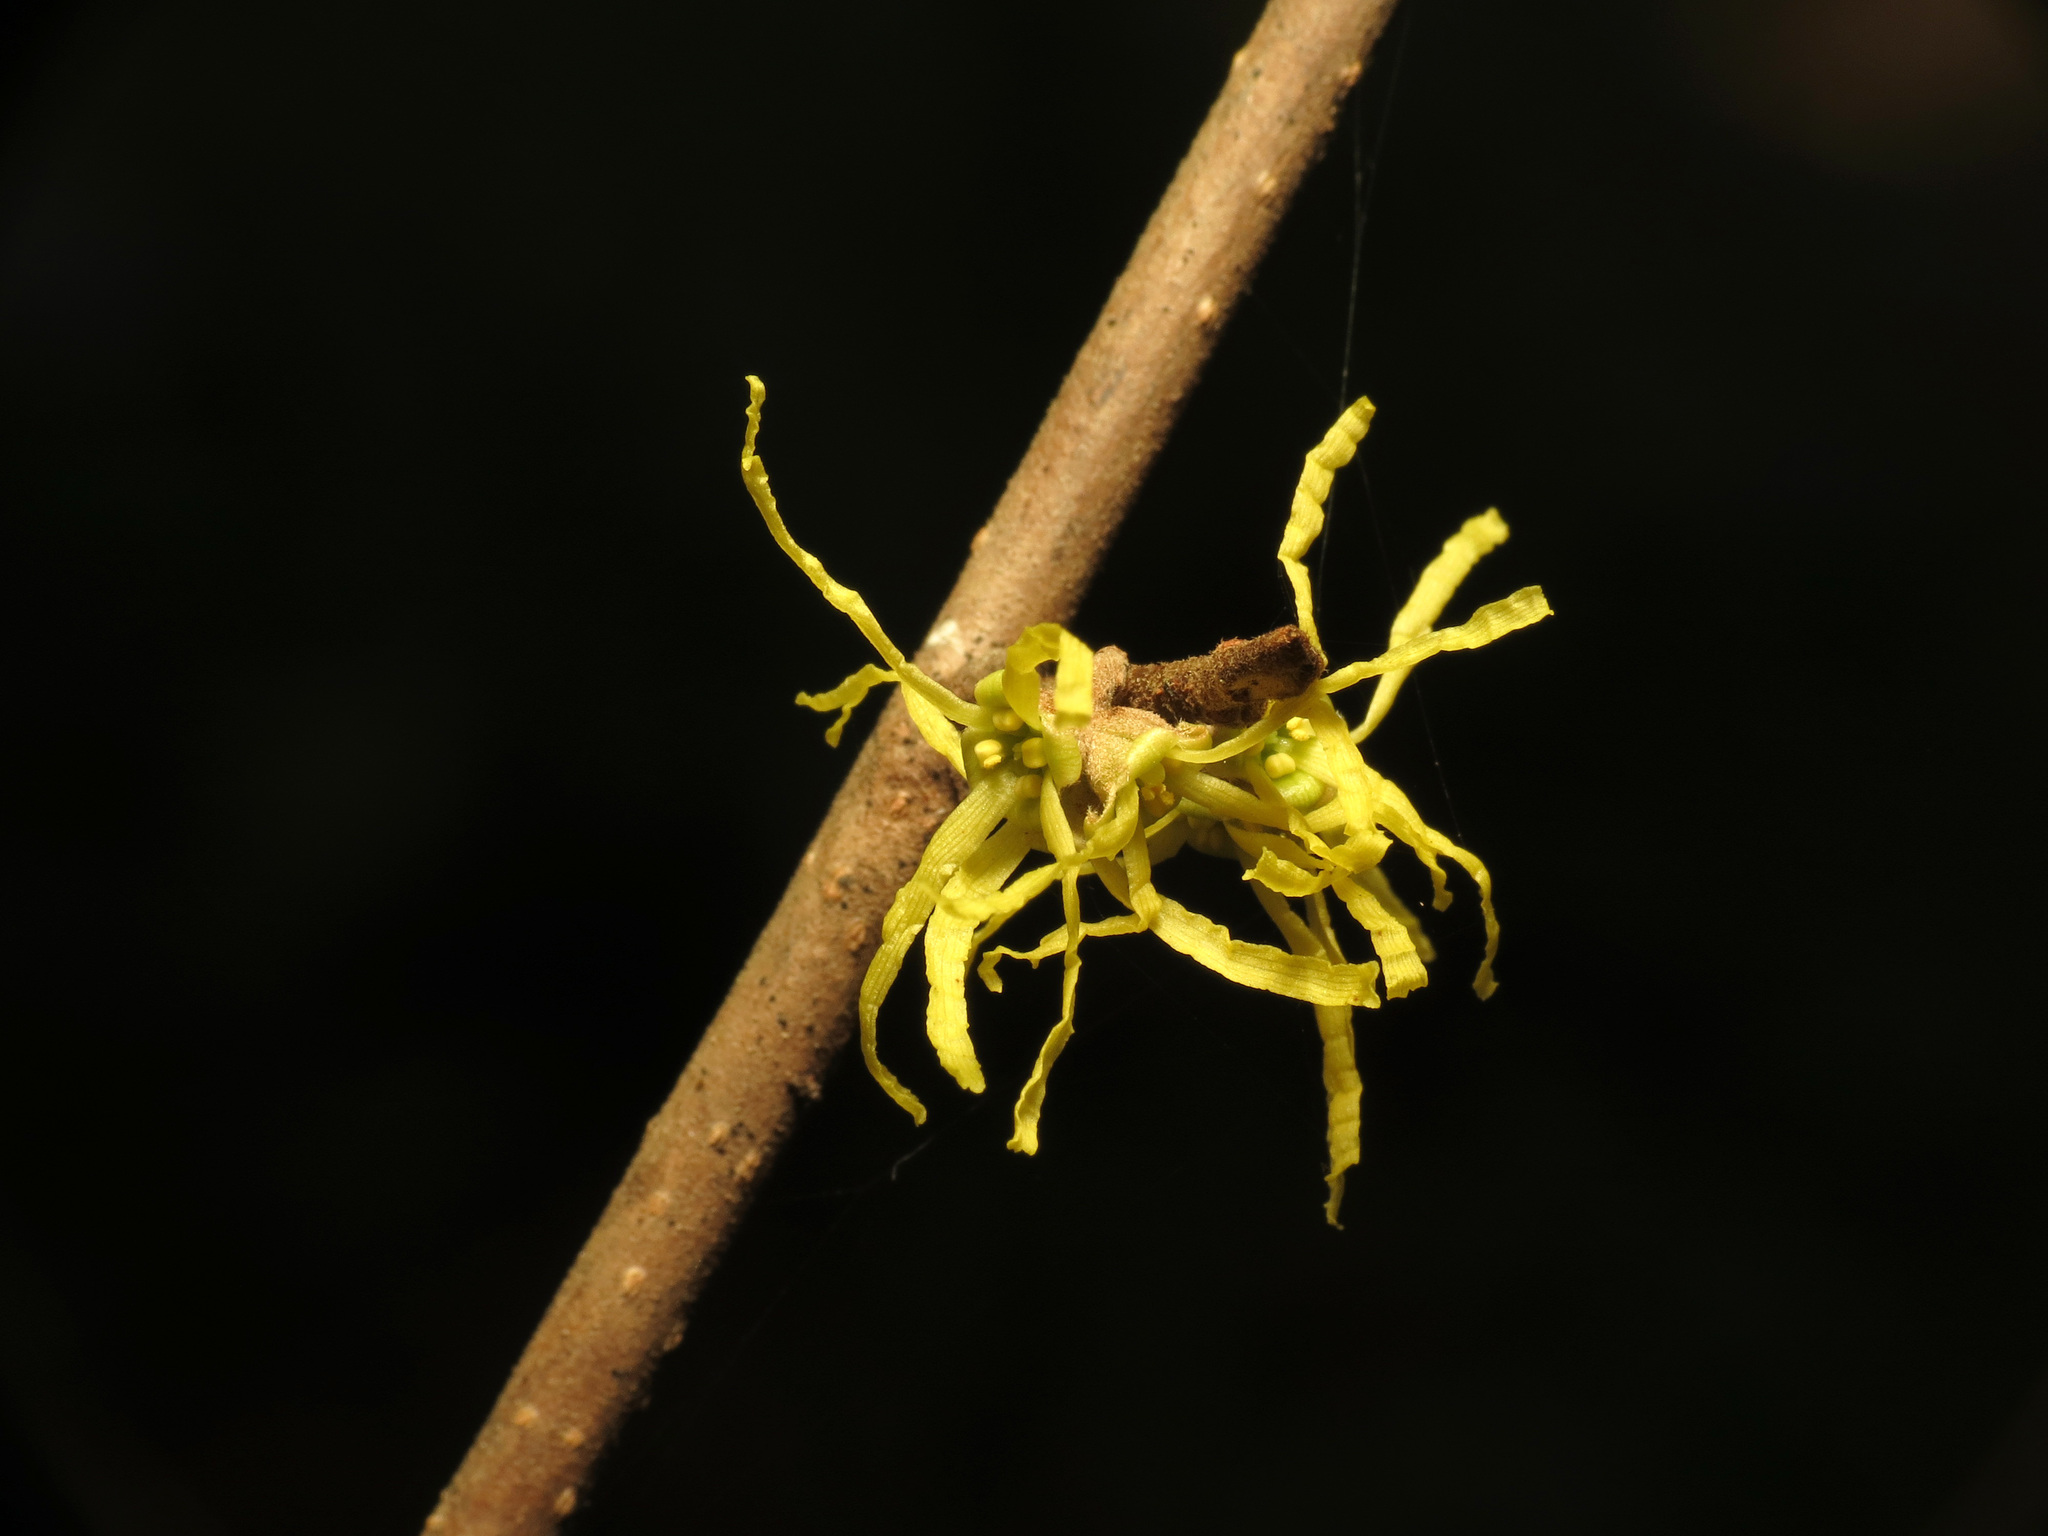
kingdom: Plantae
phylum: Tracheophyta
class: Magnoliopsida
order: Saxifragales
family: Hamamelidaceae
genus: Hamamelis
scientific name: Hamamelis virginiana
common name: Witch-hazel
